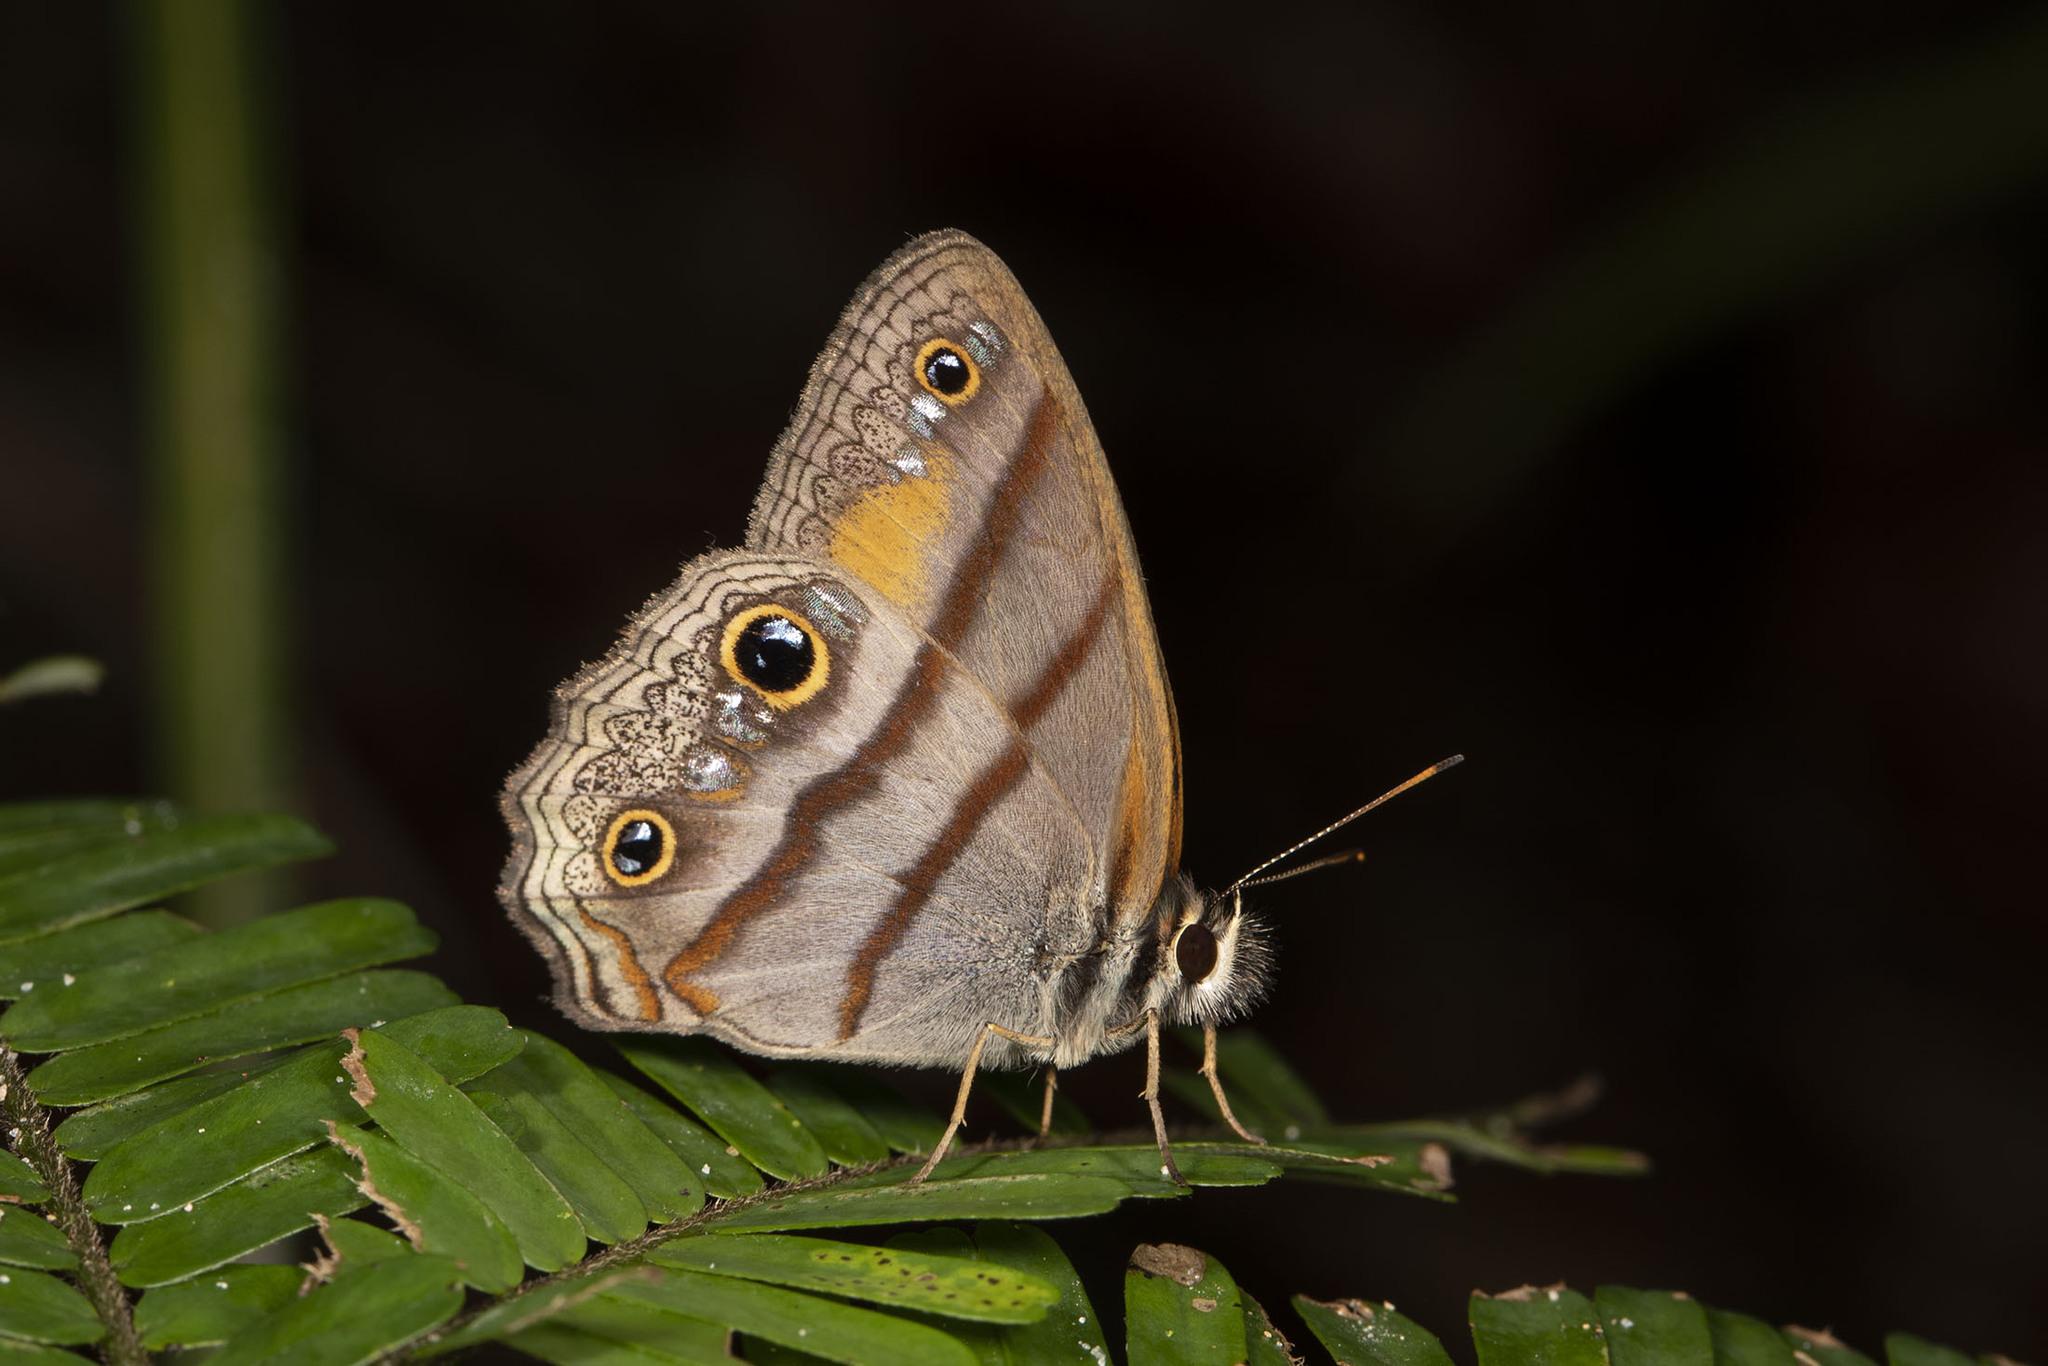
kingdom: Animalia
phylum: Arthropoda
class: Insecta
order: Lepidoptera
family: Nymphalidae
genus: Argyreuptychia
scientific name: Argyreuptychia penelope
